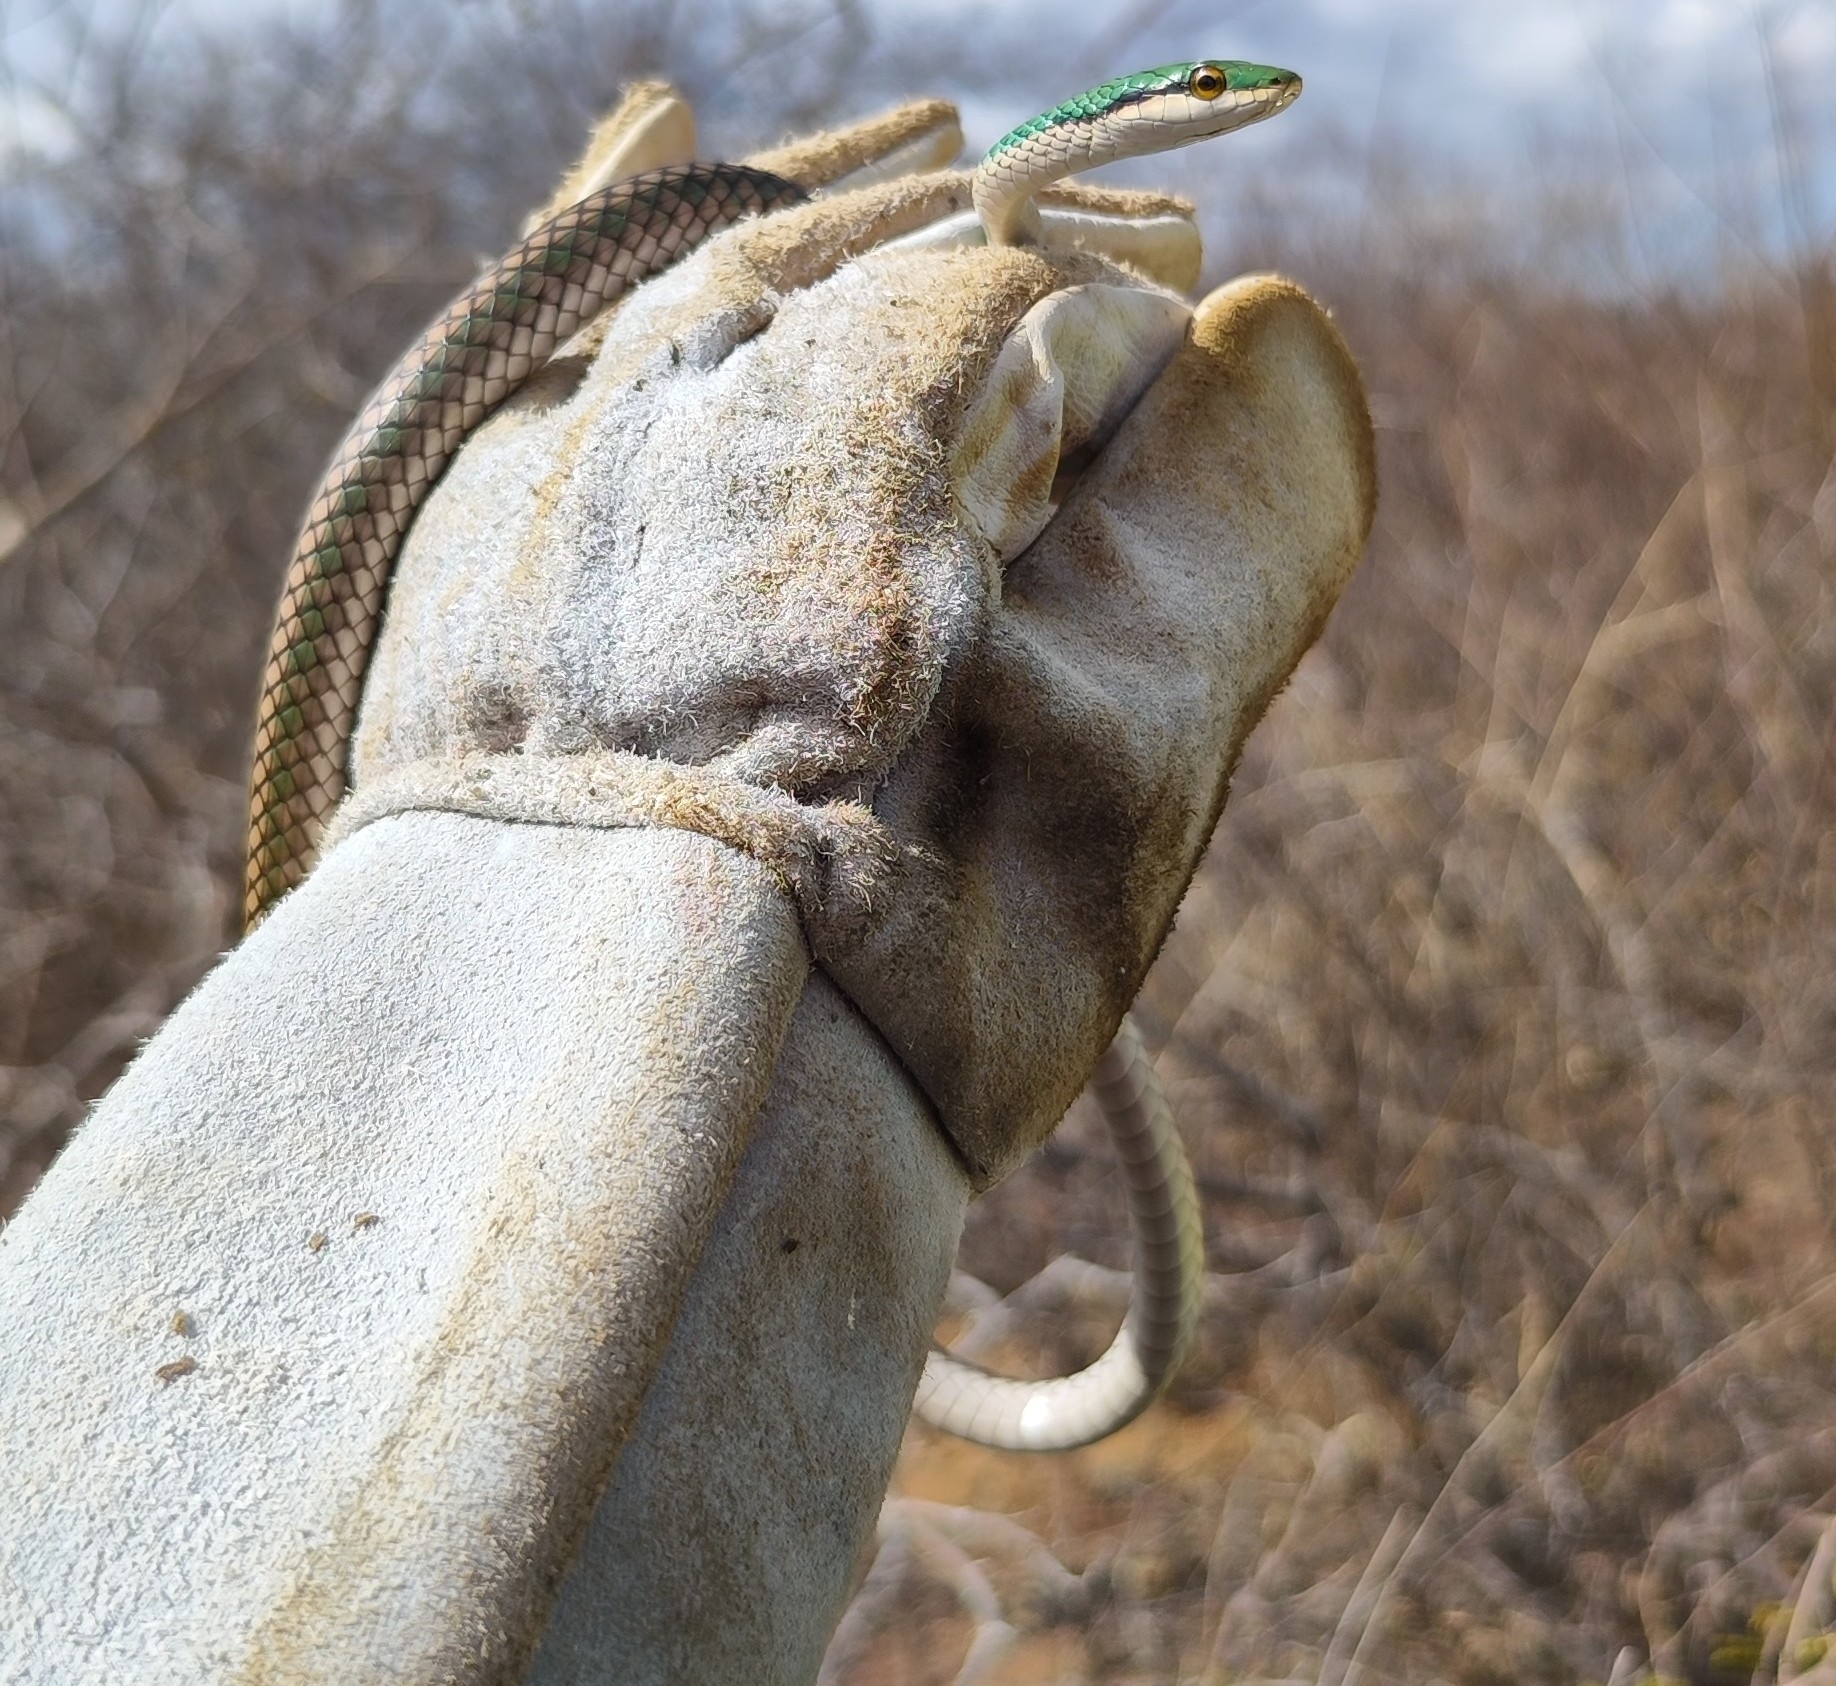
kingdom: Animalia
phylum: Chordata
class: Squamata
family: Colubridae
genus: Leptophis
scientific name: Leptophis ahaetulla
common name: Parrot snake
